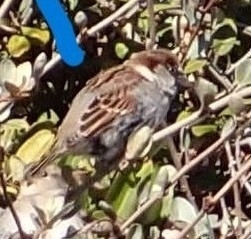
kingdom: Animalia
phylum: Chordata
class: Aves
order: Passeriformes
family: Passeridae
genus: Passer
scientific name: Passer domesticus
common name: House sparrow
